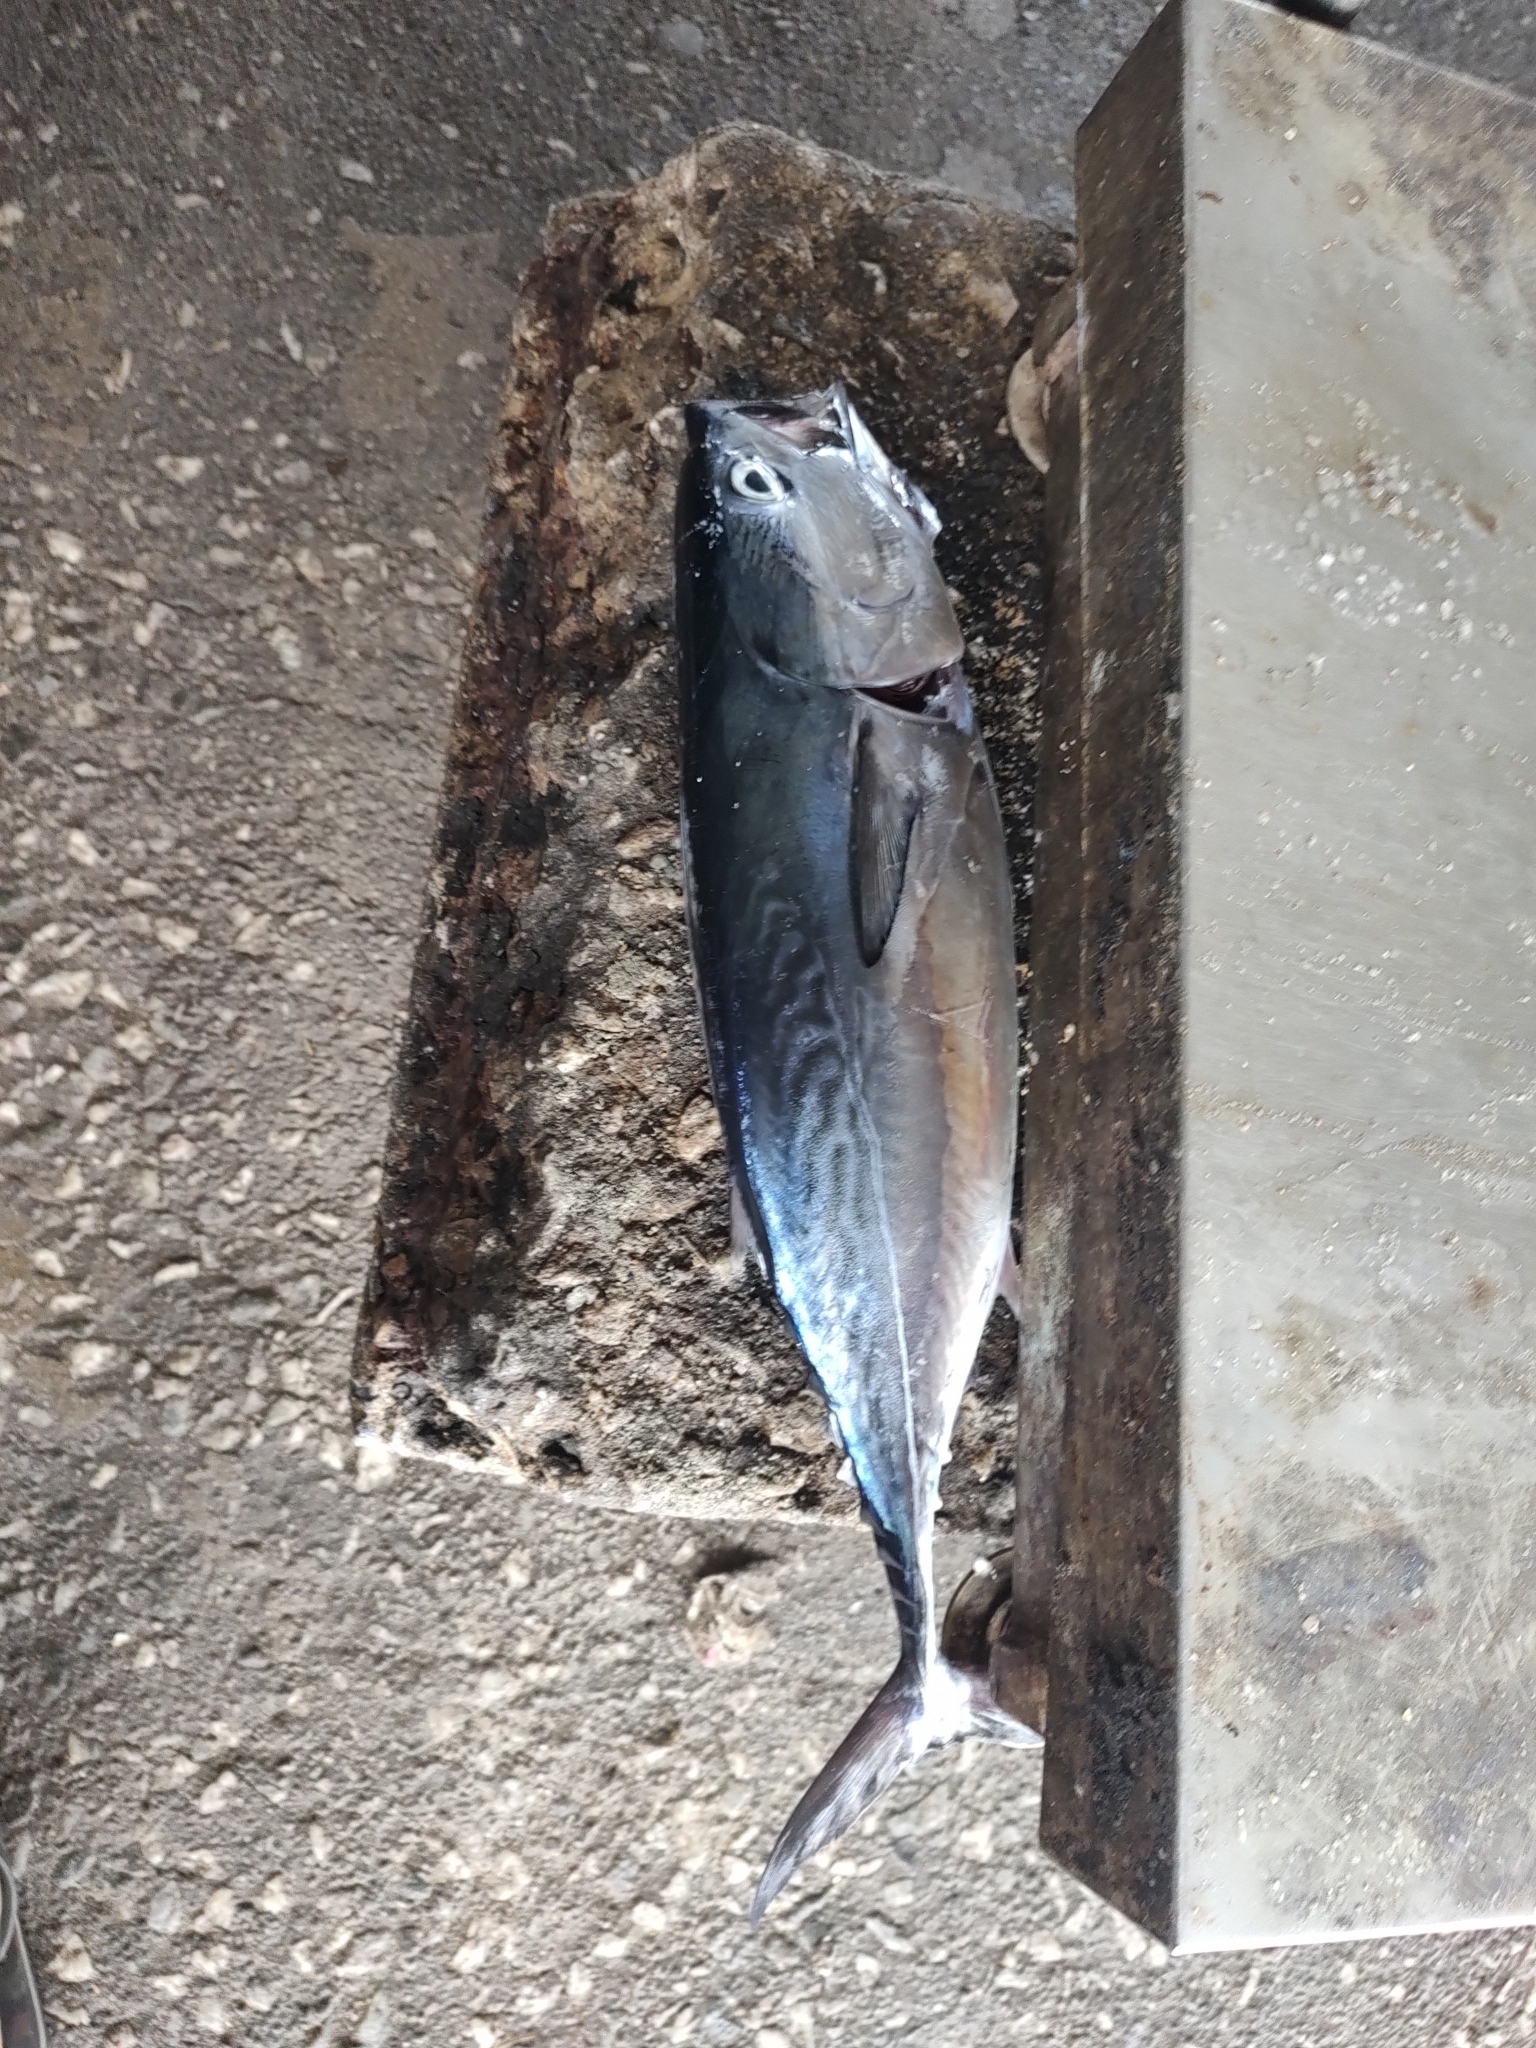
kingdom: Animalia
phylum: Chordata
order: Perciformes
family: Scombridae
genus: Euthynnus
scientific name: Euthynnus affinis
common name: Mackerel tuna
